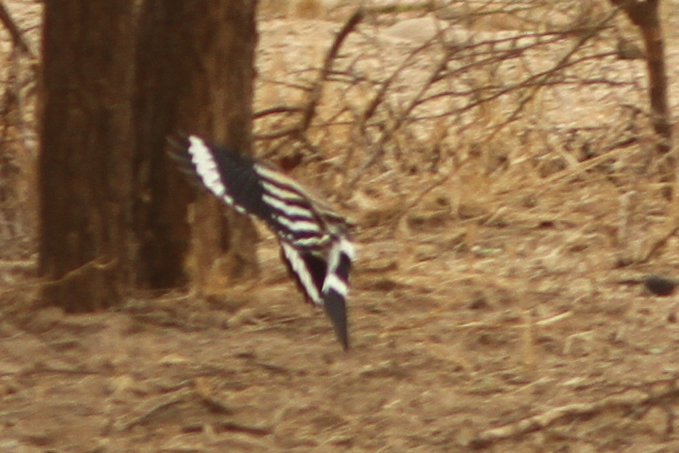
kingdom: Animalia
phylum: Chordata
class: Aves
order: Bucerotiformes
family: Upupidae
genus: Upupa
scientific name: Upupa epops
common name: Eurasian hoopoe
